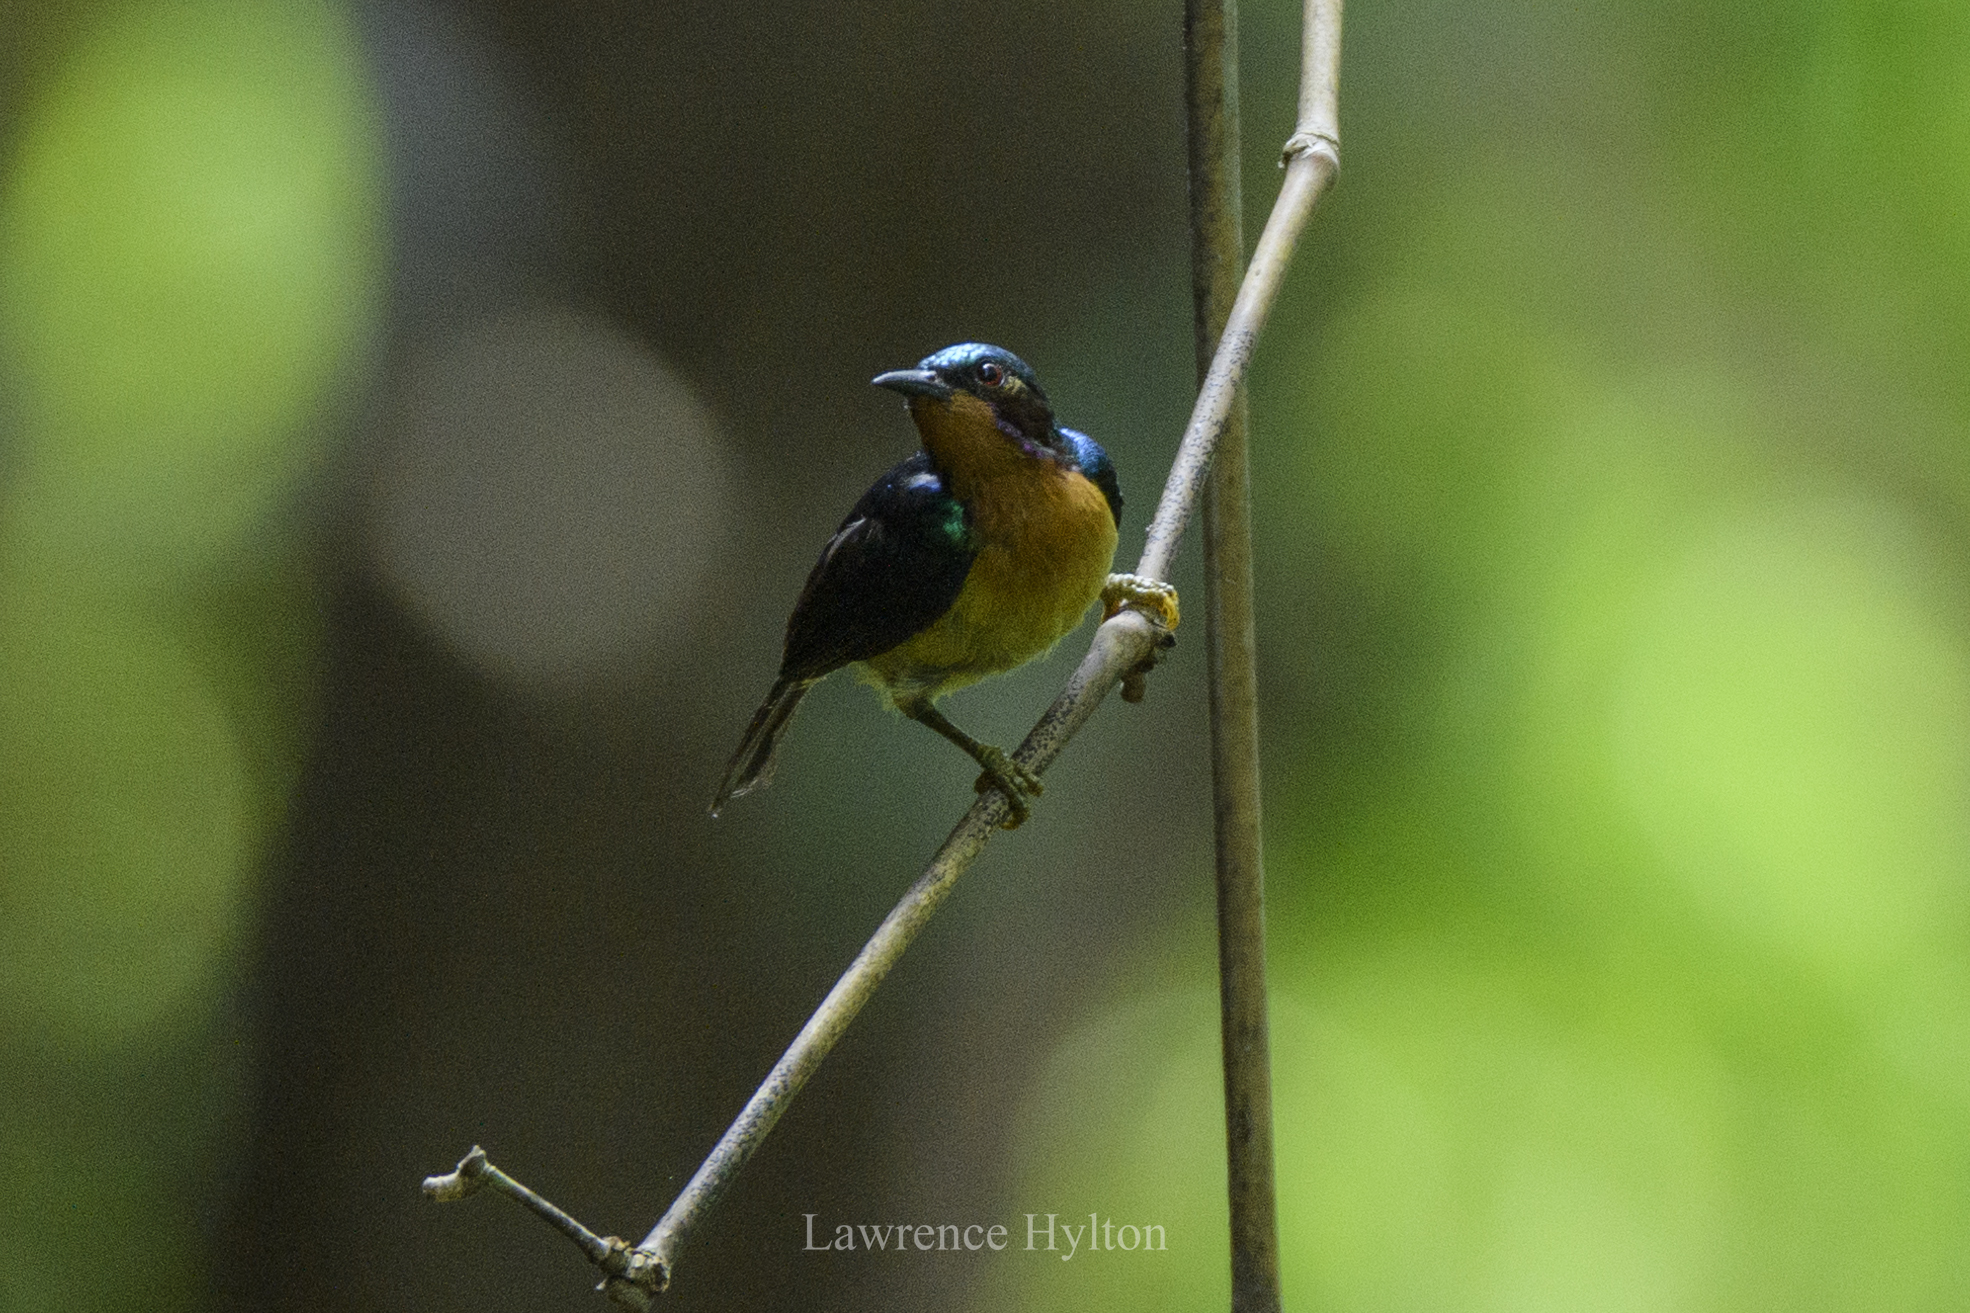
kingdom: Animalia
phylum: Chordata
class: Aves
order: Passeriformes
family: Nectariniidae
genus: Chalcoparia
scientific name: Chalcoparia singalensis
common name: Ruby-cheeked sunbird
